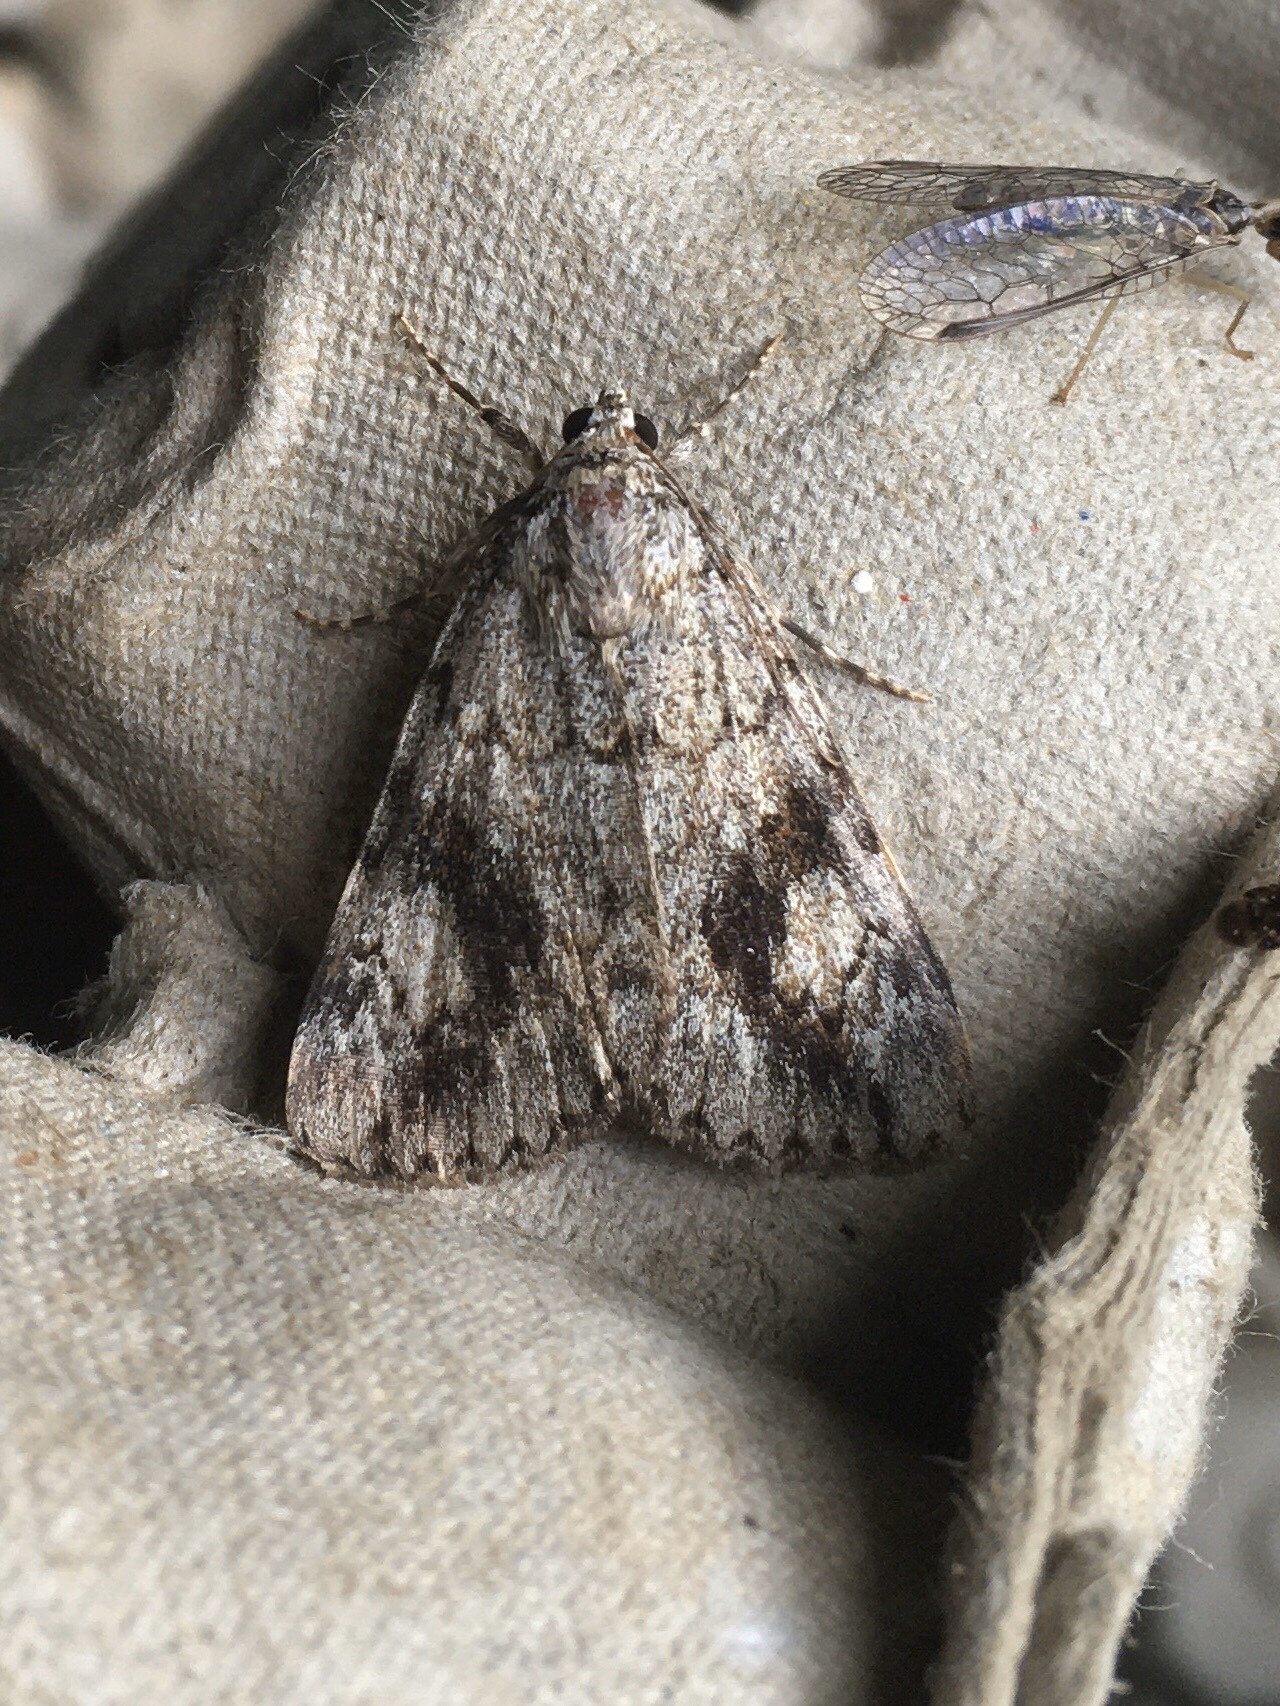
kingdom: Animalia
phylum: Arthropoda
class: Insecta
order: Lepidoptera
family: Erebidae
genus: Catocala
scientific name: Catocala amica
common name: Girlfriend underwing
